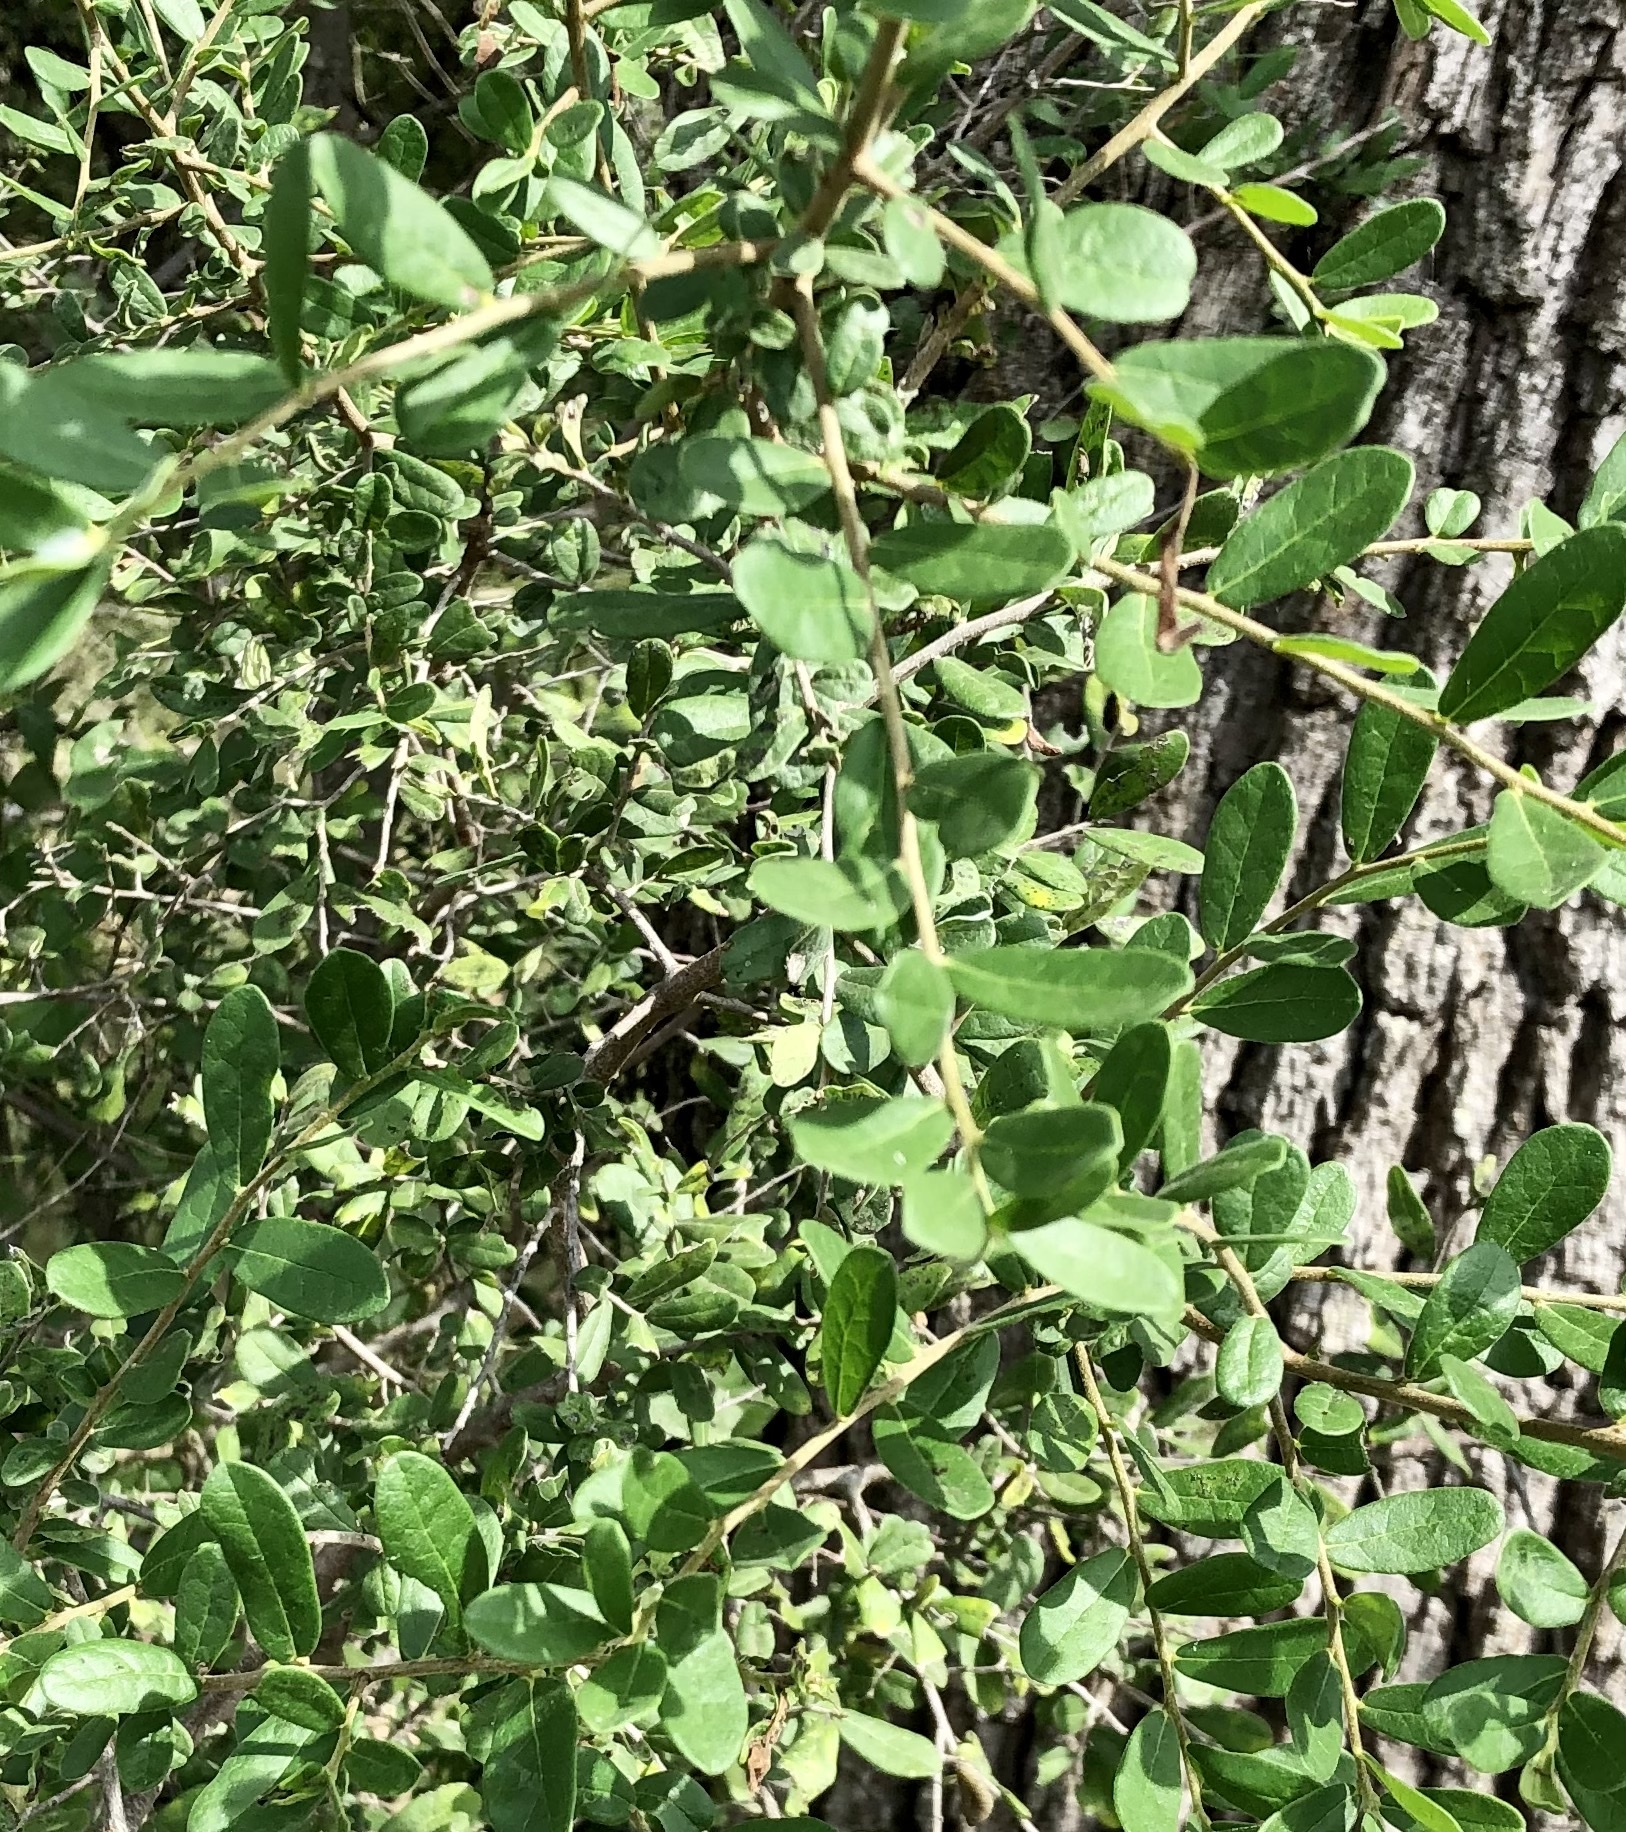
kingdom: Plantae
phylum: Tracheophyta
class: Magnoliopsida
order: Ericales
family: Ebenaceae
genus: Diospyros
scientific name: Diospyros texana
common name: Texas persimmon
